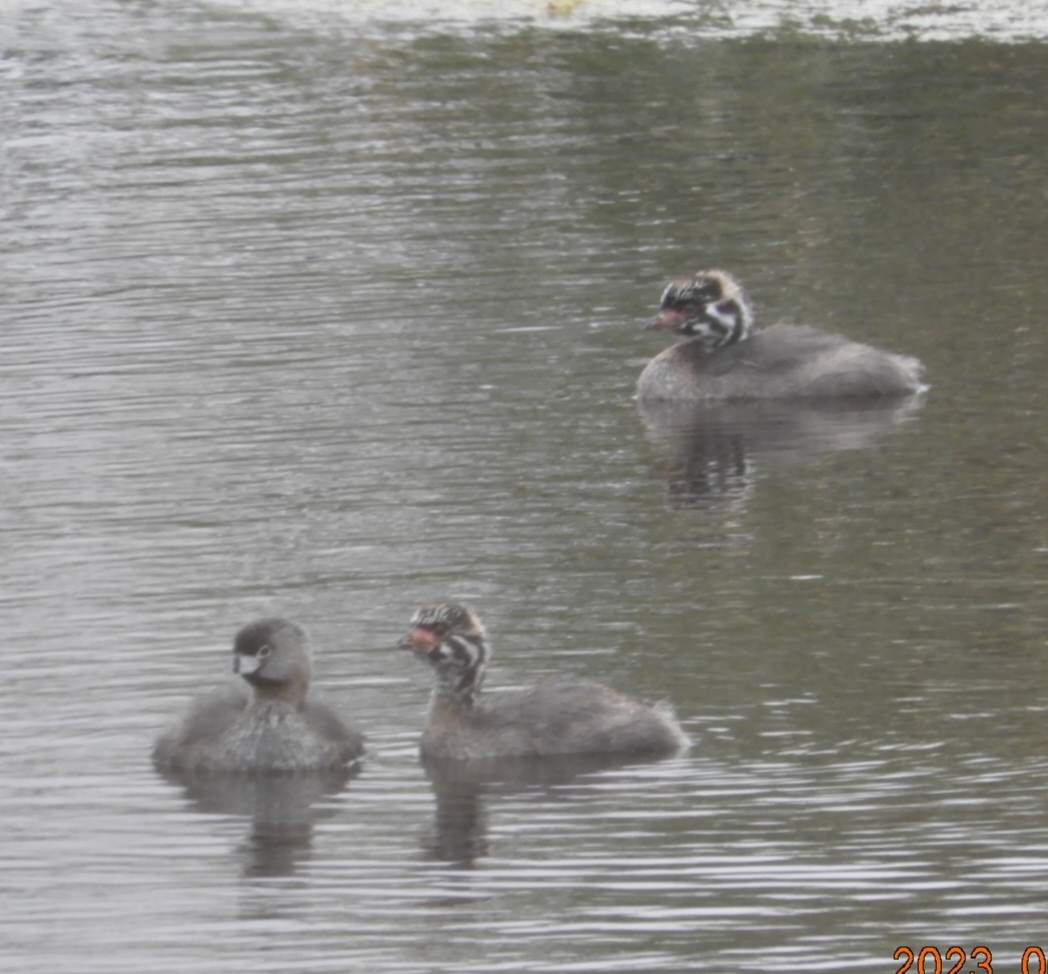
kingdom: Animalia
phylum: Chordata
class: Aves
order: Podicipediformes
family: Podicipedidae
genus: Podilymbus
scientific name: Podilymbus podiceps
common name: Pied-billed grebe
